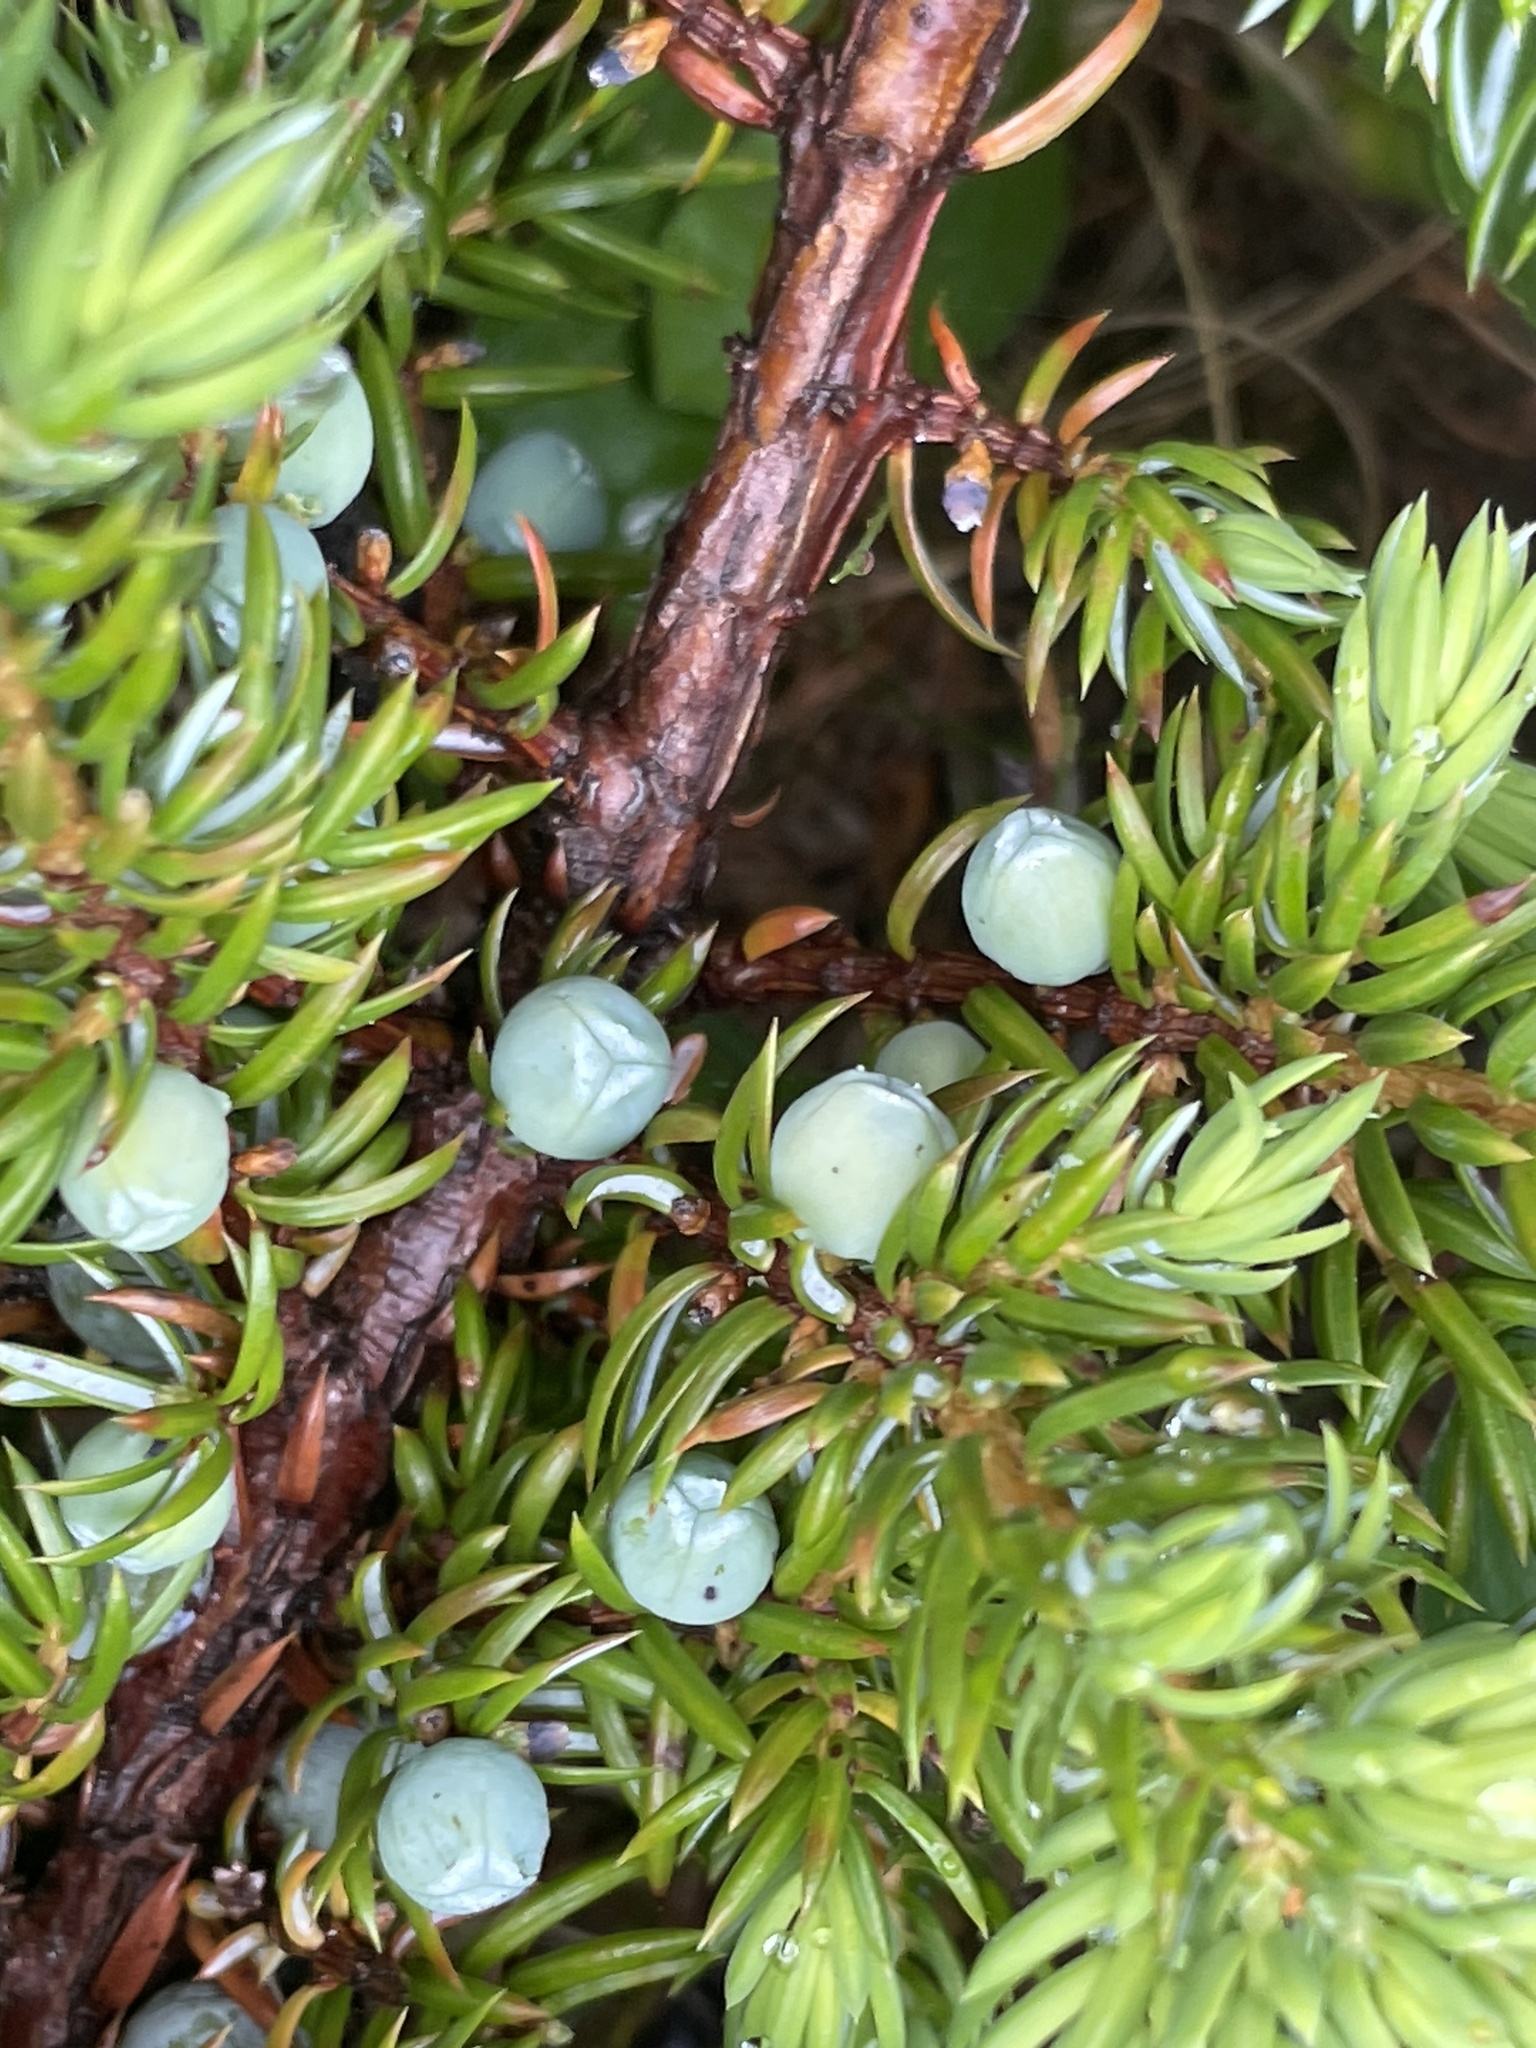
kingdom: Plantae
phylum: Tracheophyta
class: Pinopsida
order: Pinales
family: Cupressaceae
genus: Juniperus
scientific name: Juniperus communis
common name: Common juniper
